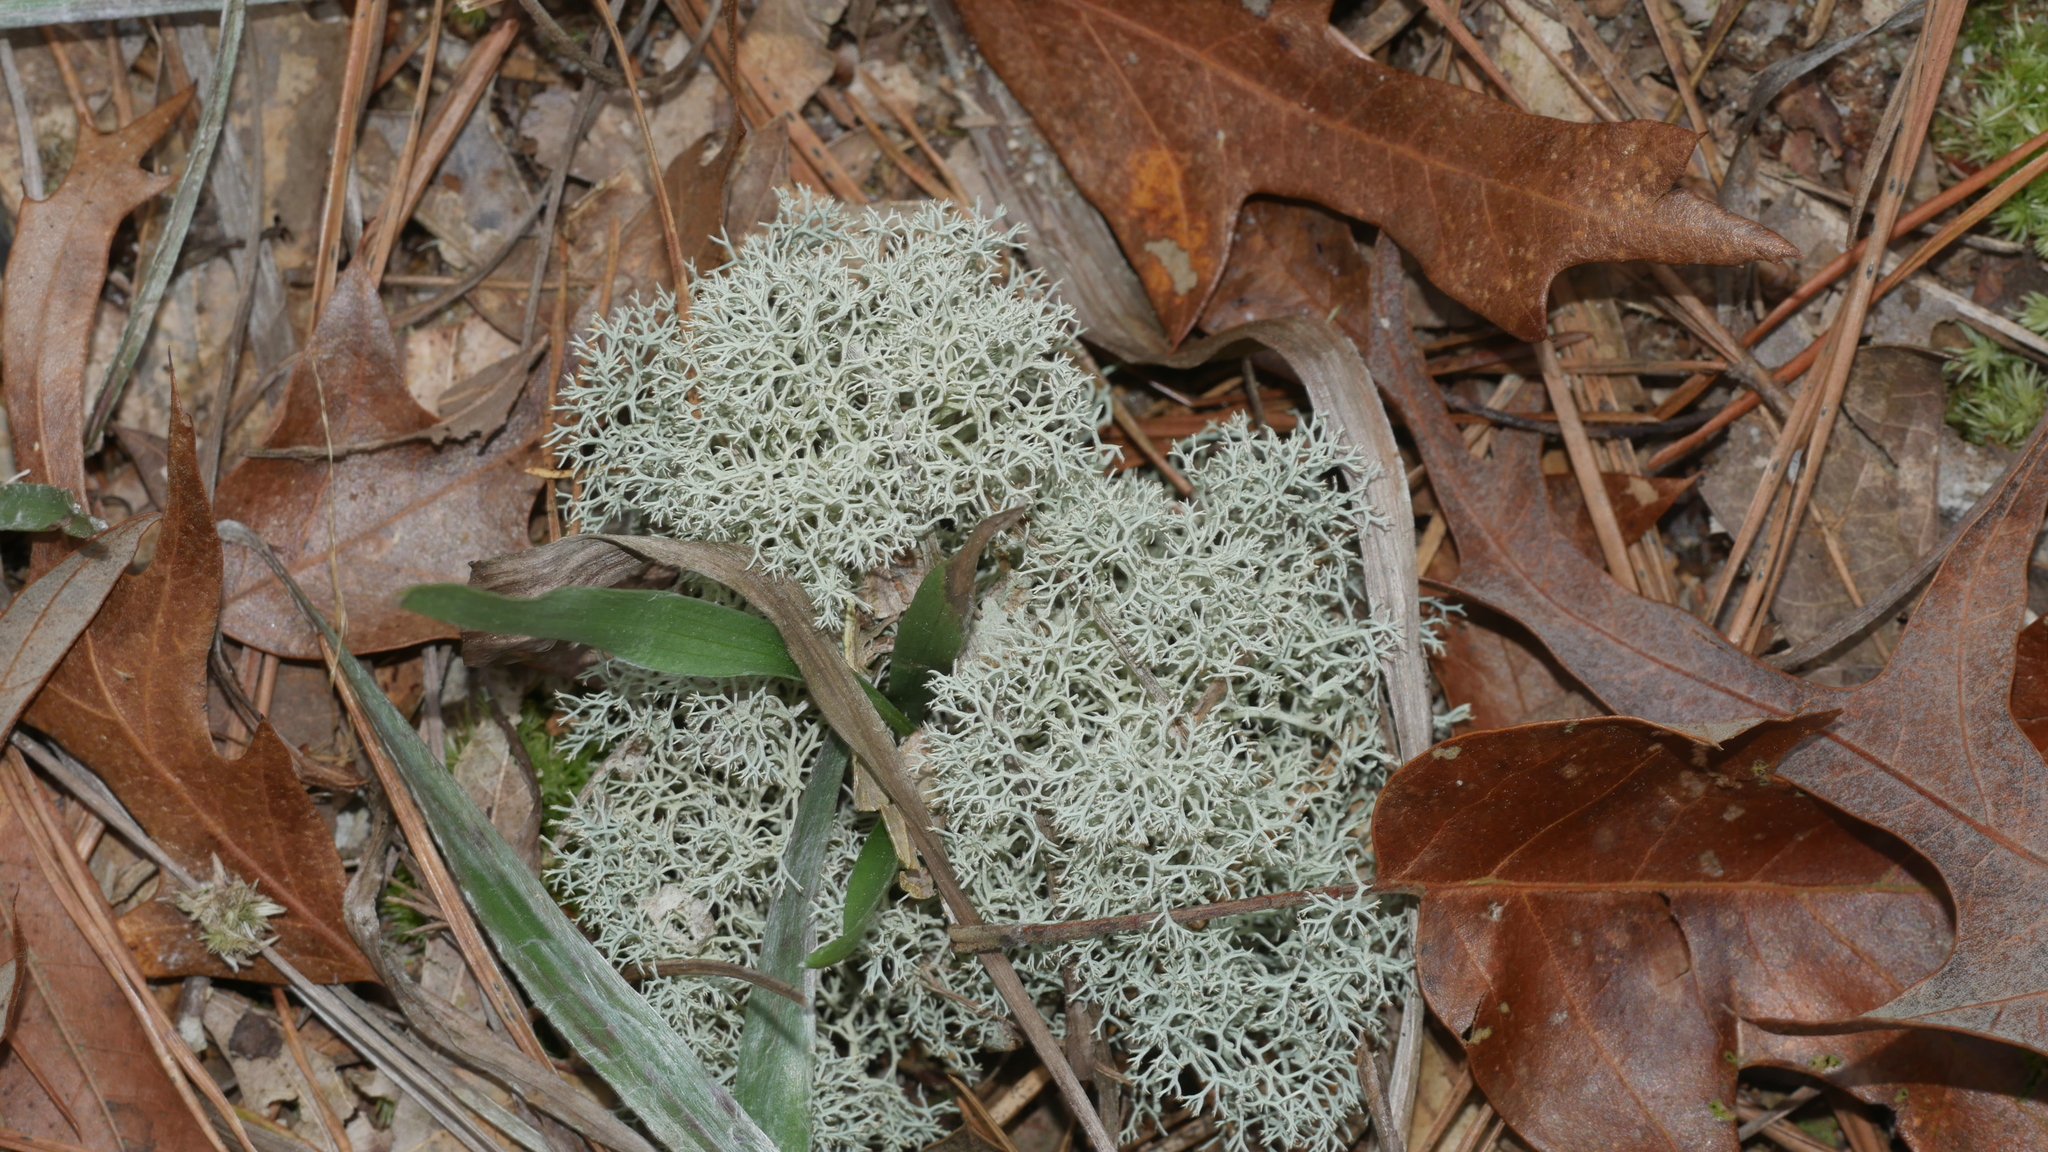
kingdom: Fungi
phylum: Ascomycota
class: Lecanoromycetes
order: Lecanorales
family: Cladoniaceae
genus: Cladonia
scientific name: Cladonia subtenuis
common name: Dixie reindeer lichen
